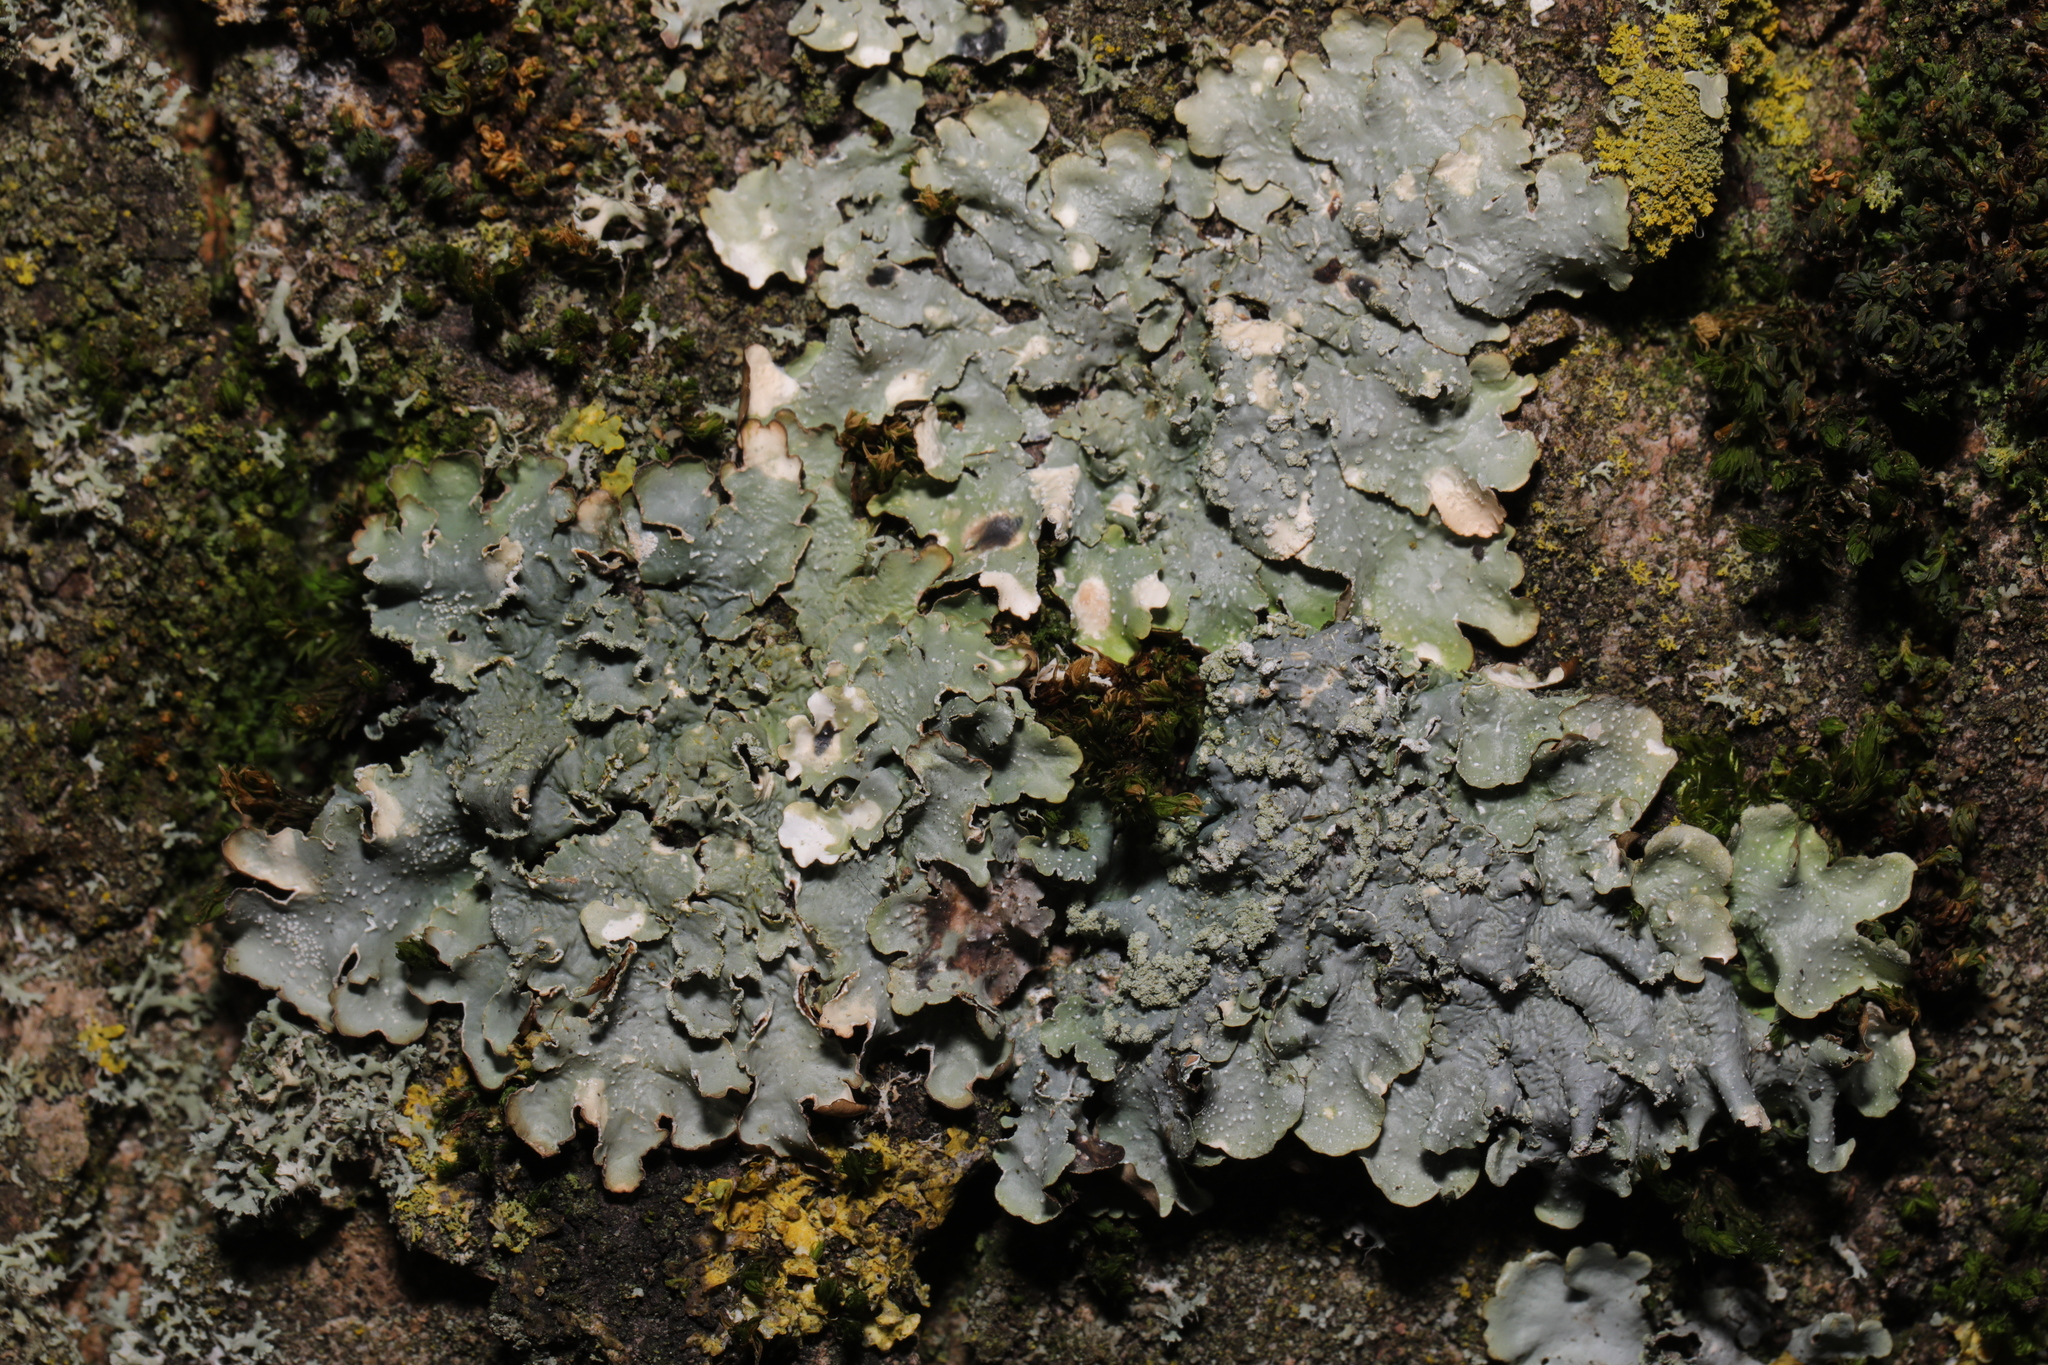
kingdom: Fungi
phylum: Ascomycota
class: Lecanoromycetes
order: Lecanorales
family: Parmeliaceae
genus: Punctelia
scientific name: Punctelia
